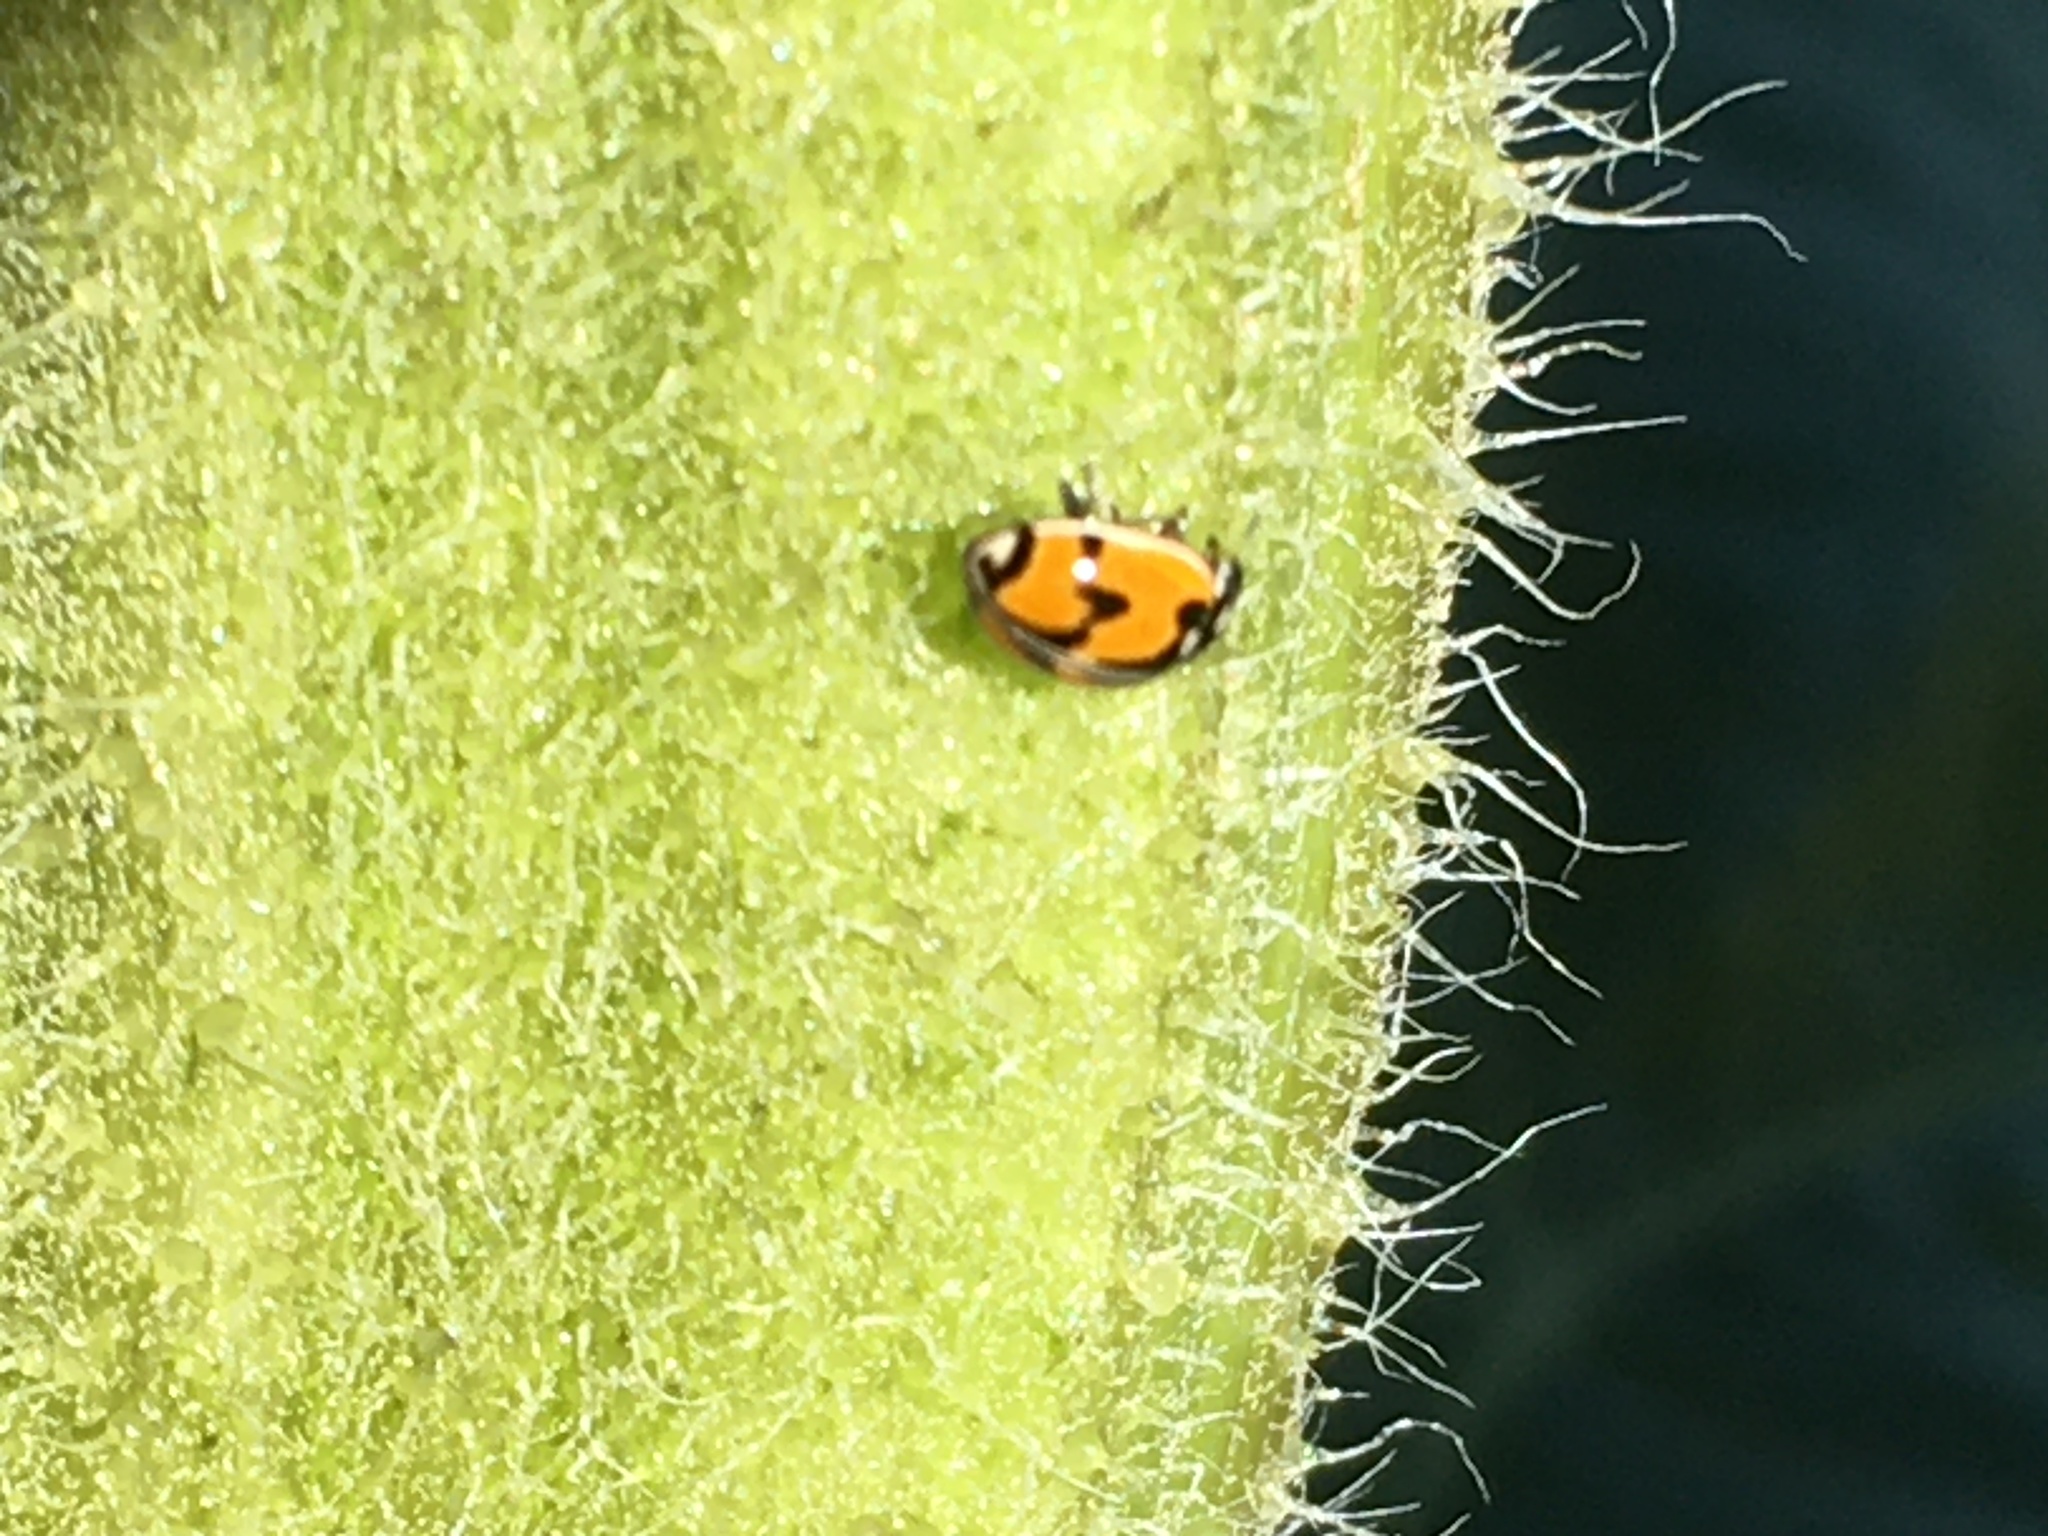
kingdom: Animalia
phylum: Arthropoda
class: Insecta
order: Coleoptera
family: Coccinellidae
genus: Adalia
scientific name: Adalia angulifera
